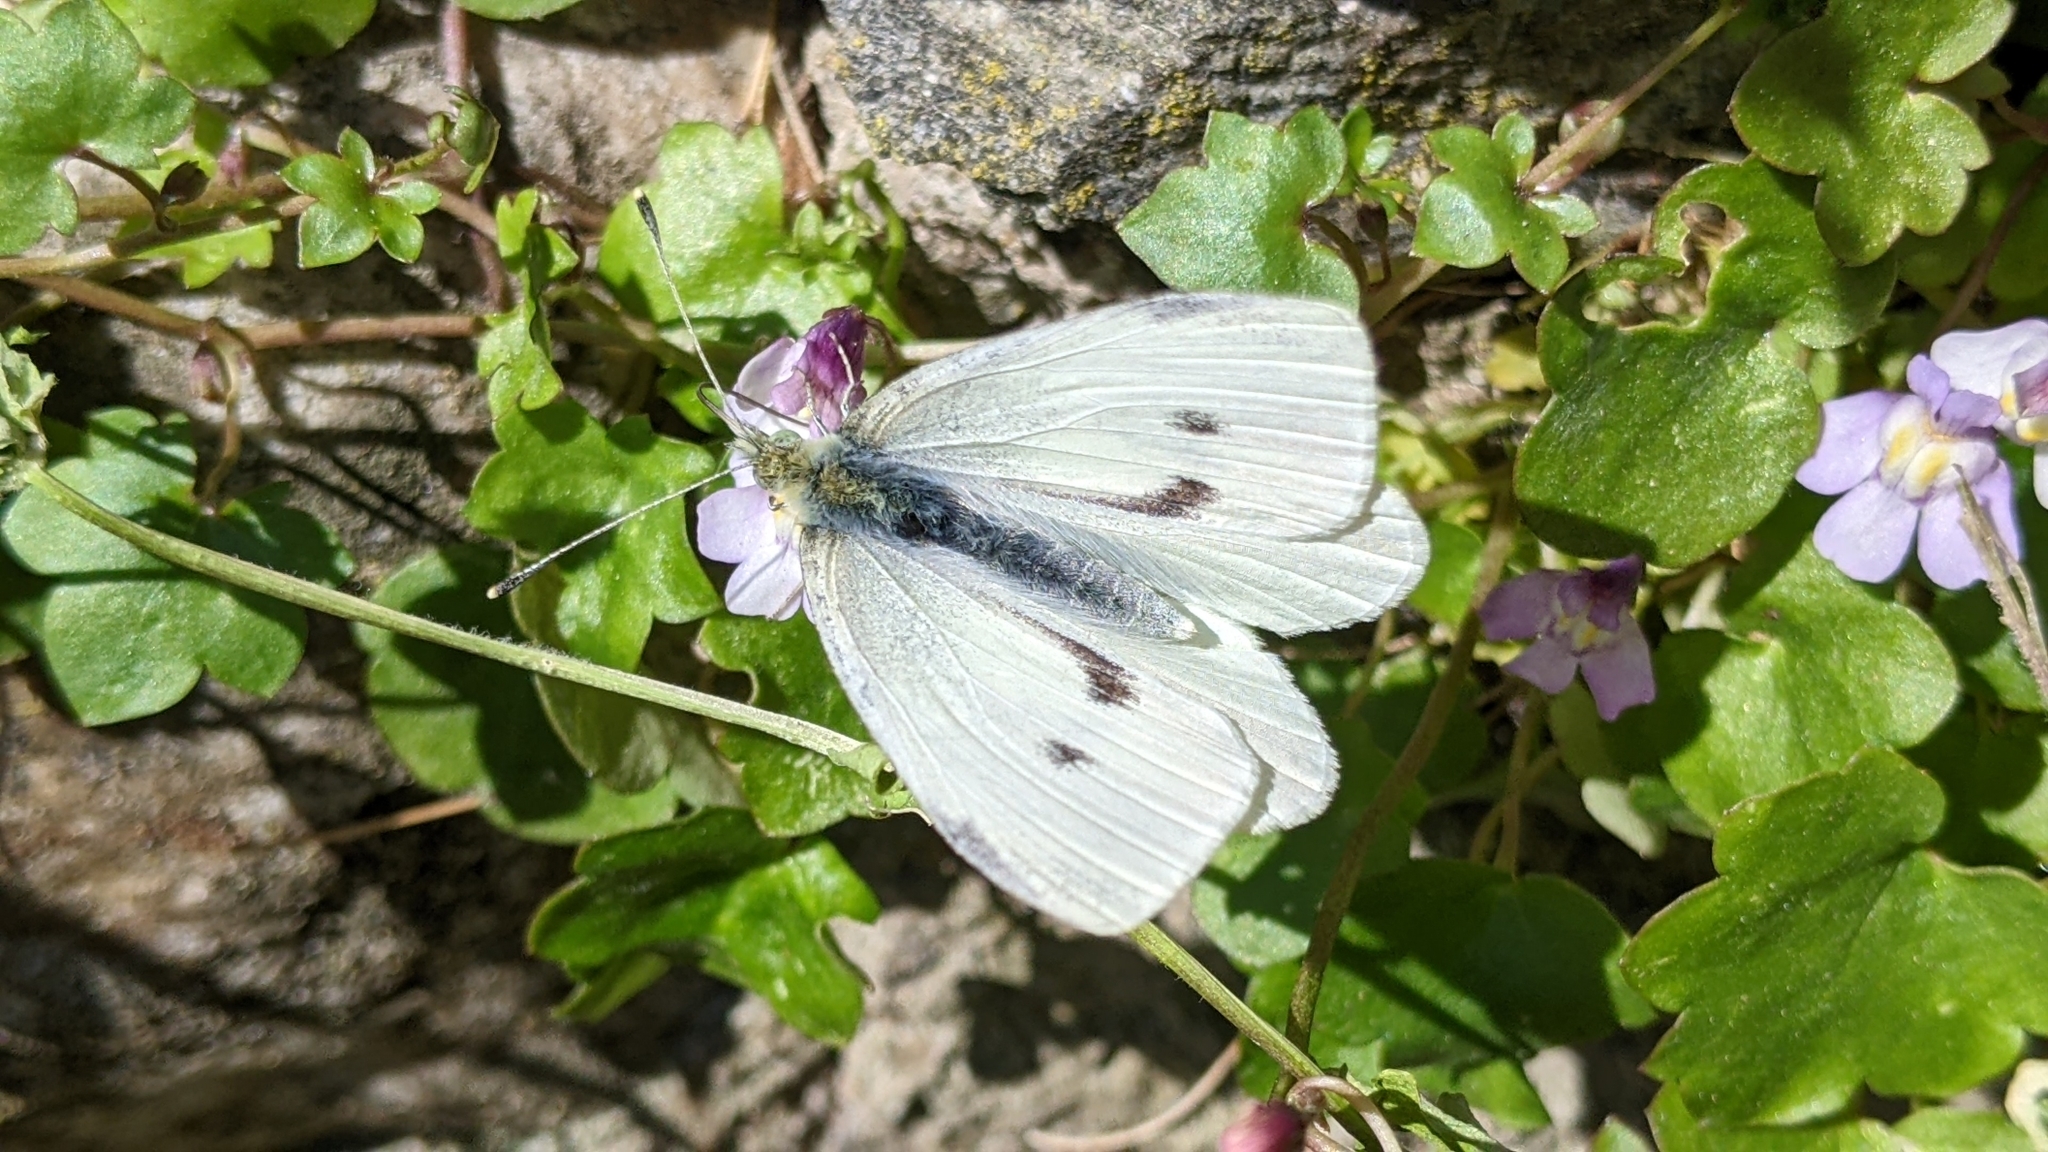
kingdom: Animalia
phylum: Arthropoda
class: Insecta
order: Lepidoptera
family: Pieridae
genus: Pieris
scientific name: Pieris rapae
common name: Small white
